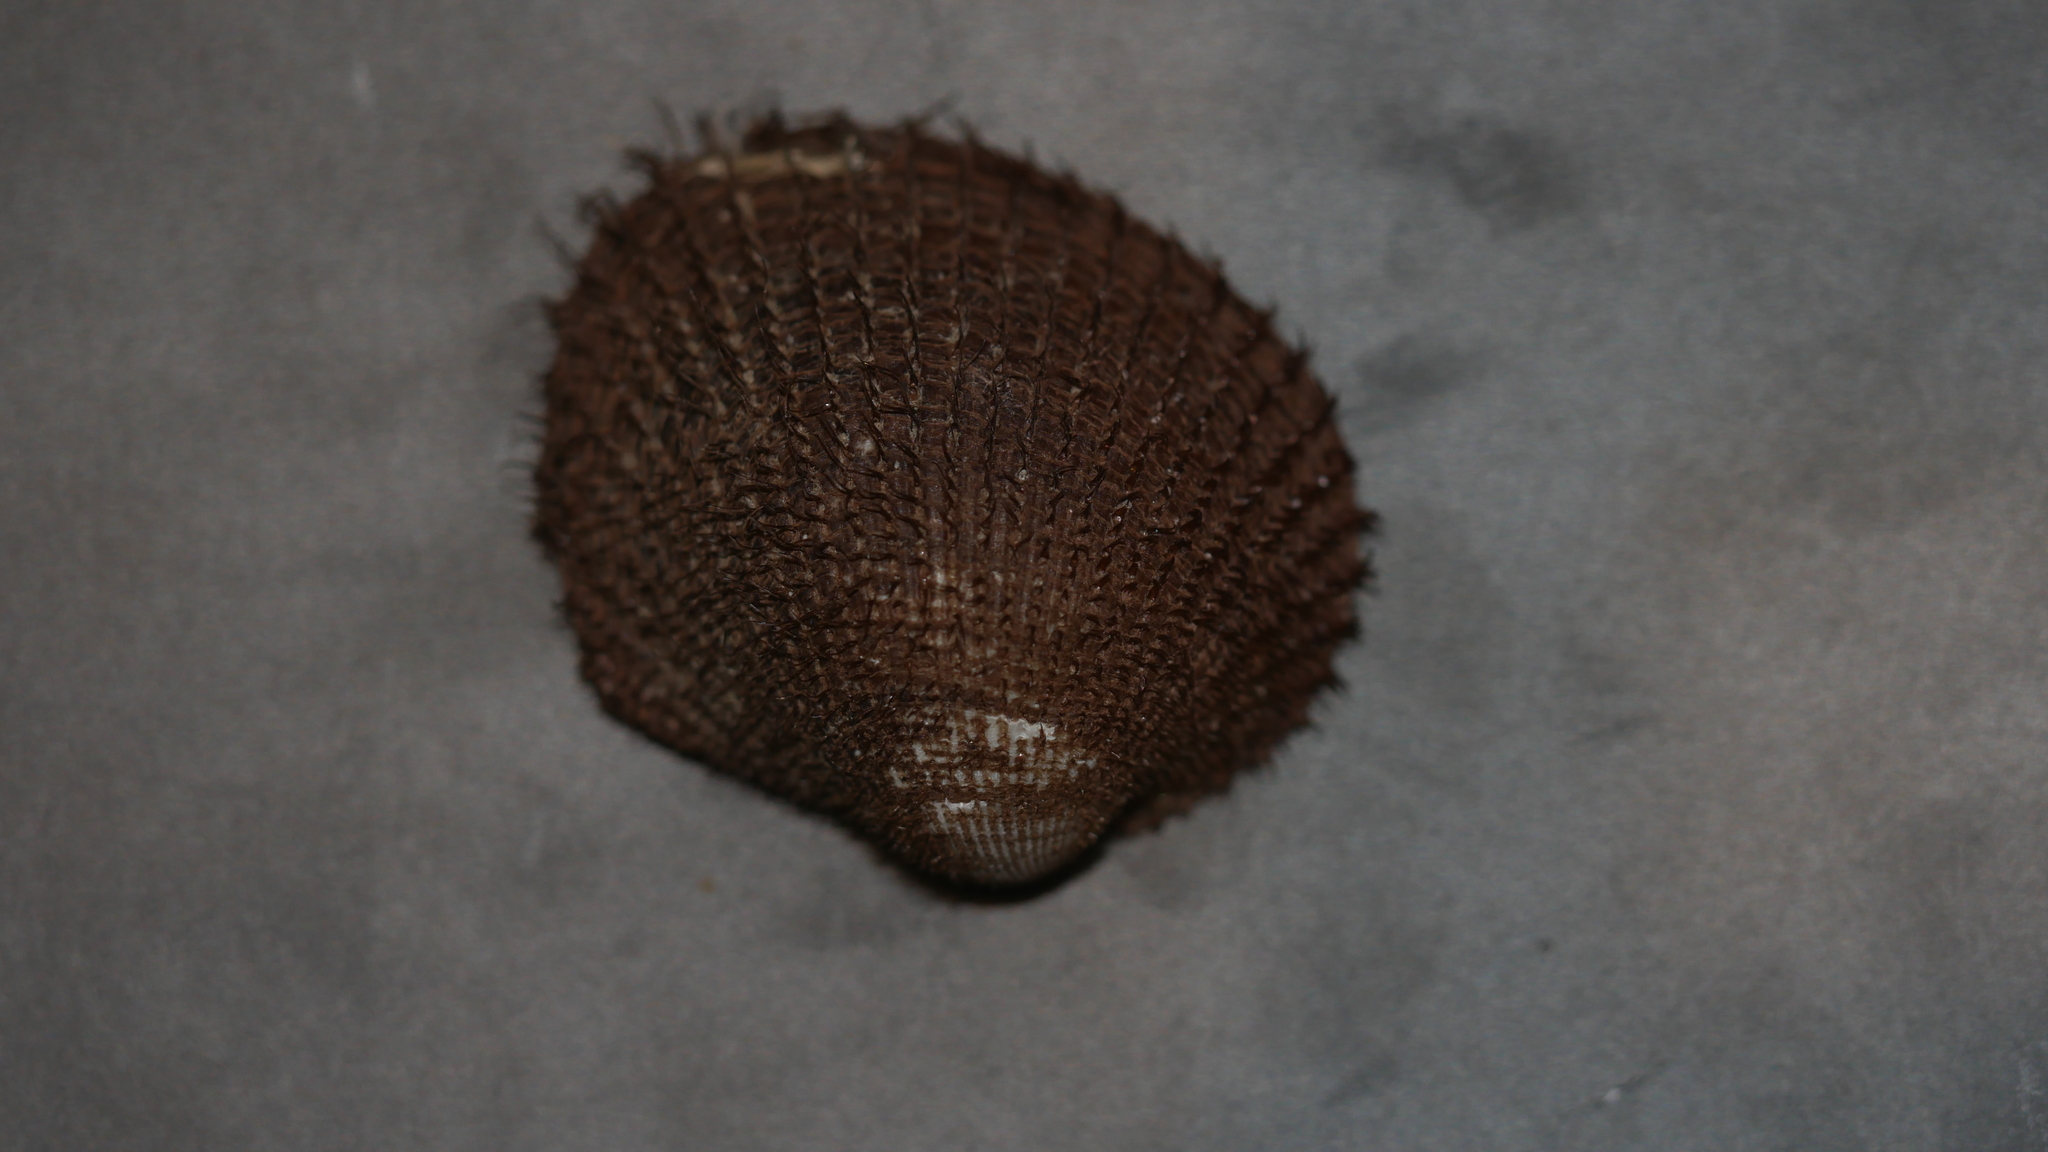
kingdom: Animalia
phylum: Mollusca
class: Bivalvia
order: Arcida
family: Arcidae
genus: Lunarca
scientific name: Lunarca ovalis
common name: Blood ark
